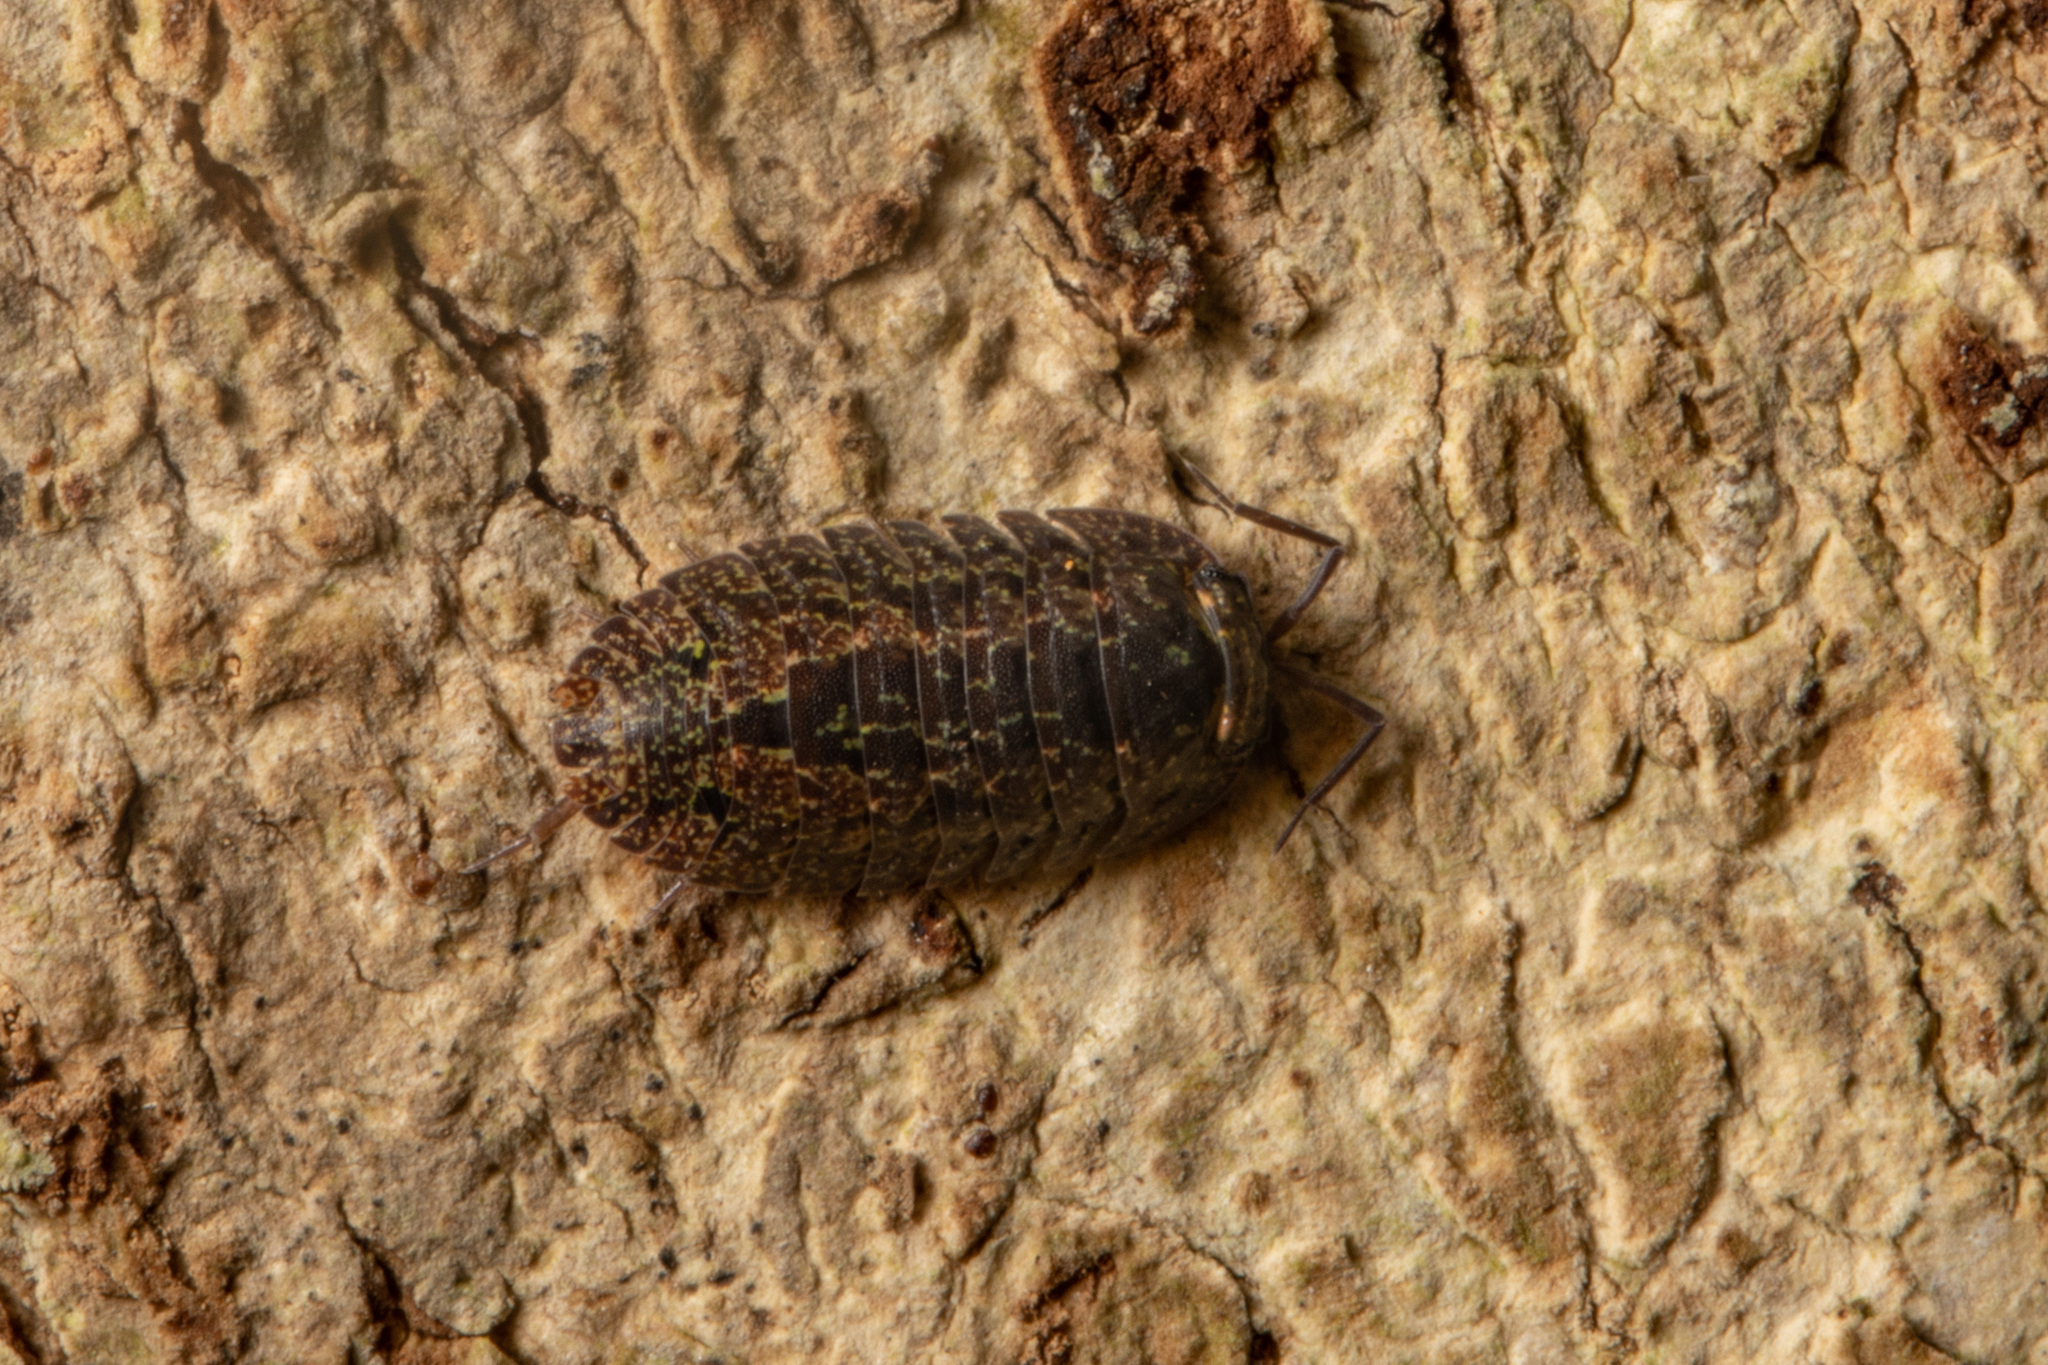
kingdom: Animalia
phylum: Arthropoda
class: Malacostraca
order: Isopoda
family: Armadillidae
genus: Cubaris
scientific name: Cubaris tarangensis
